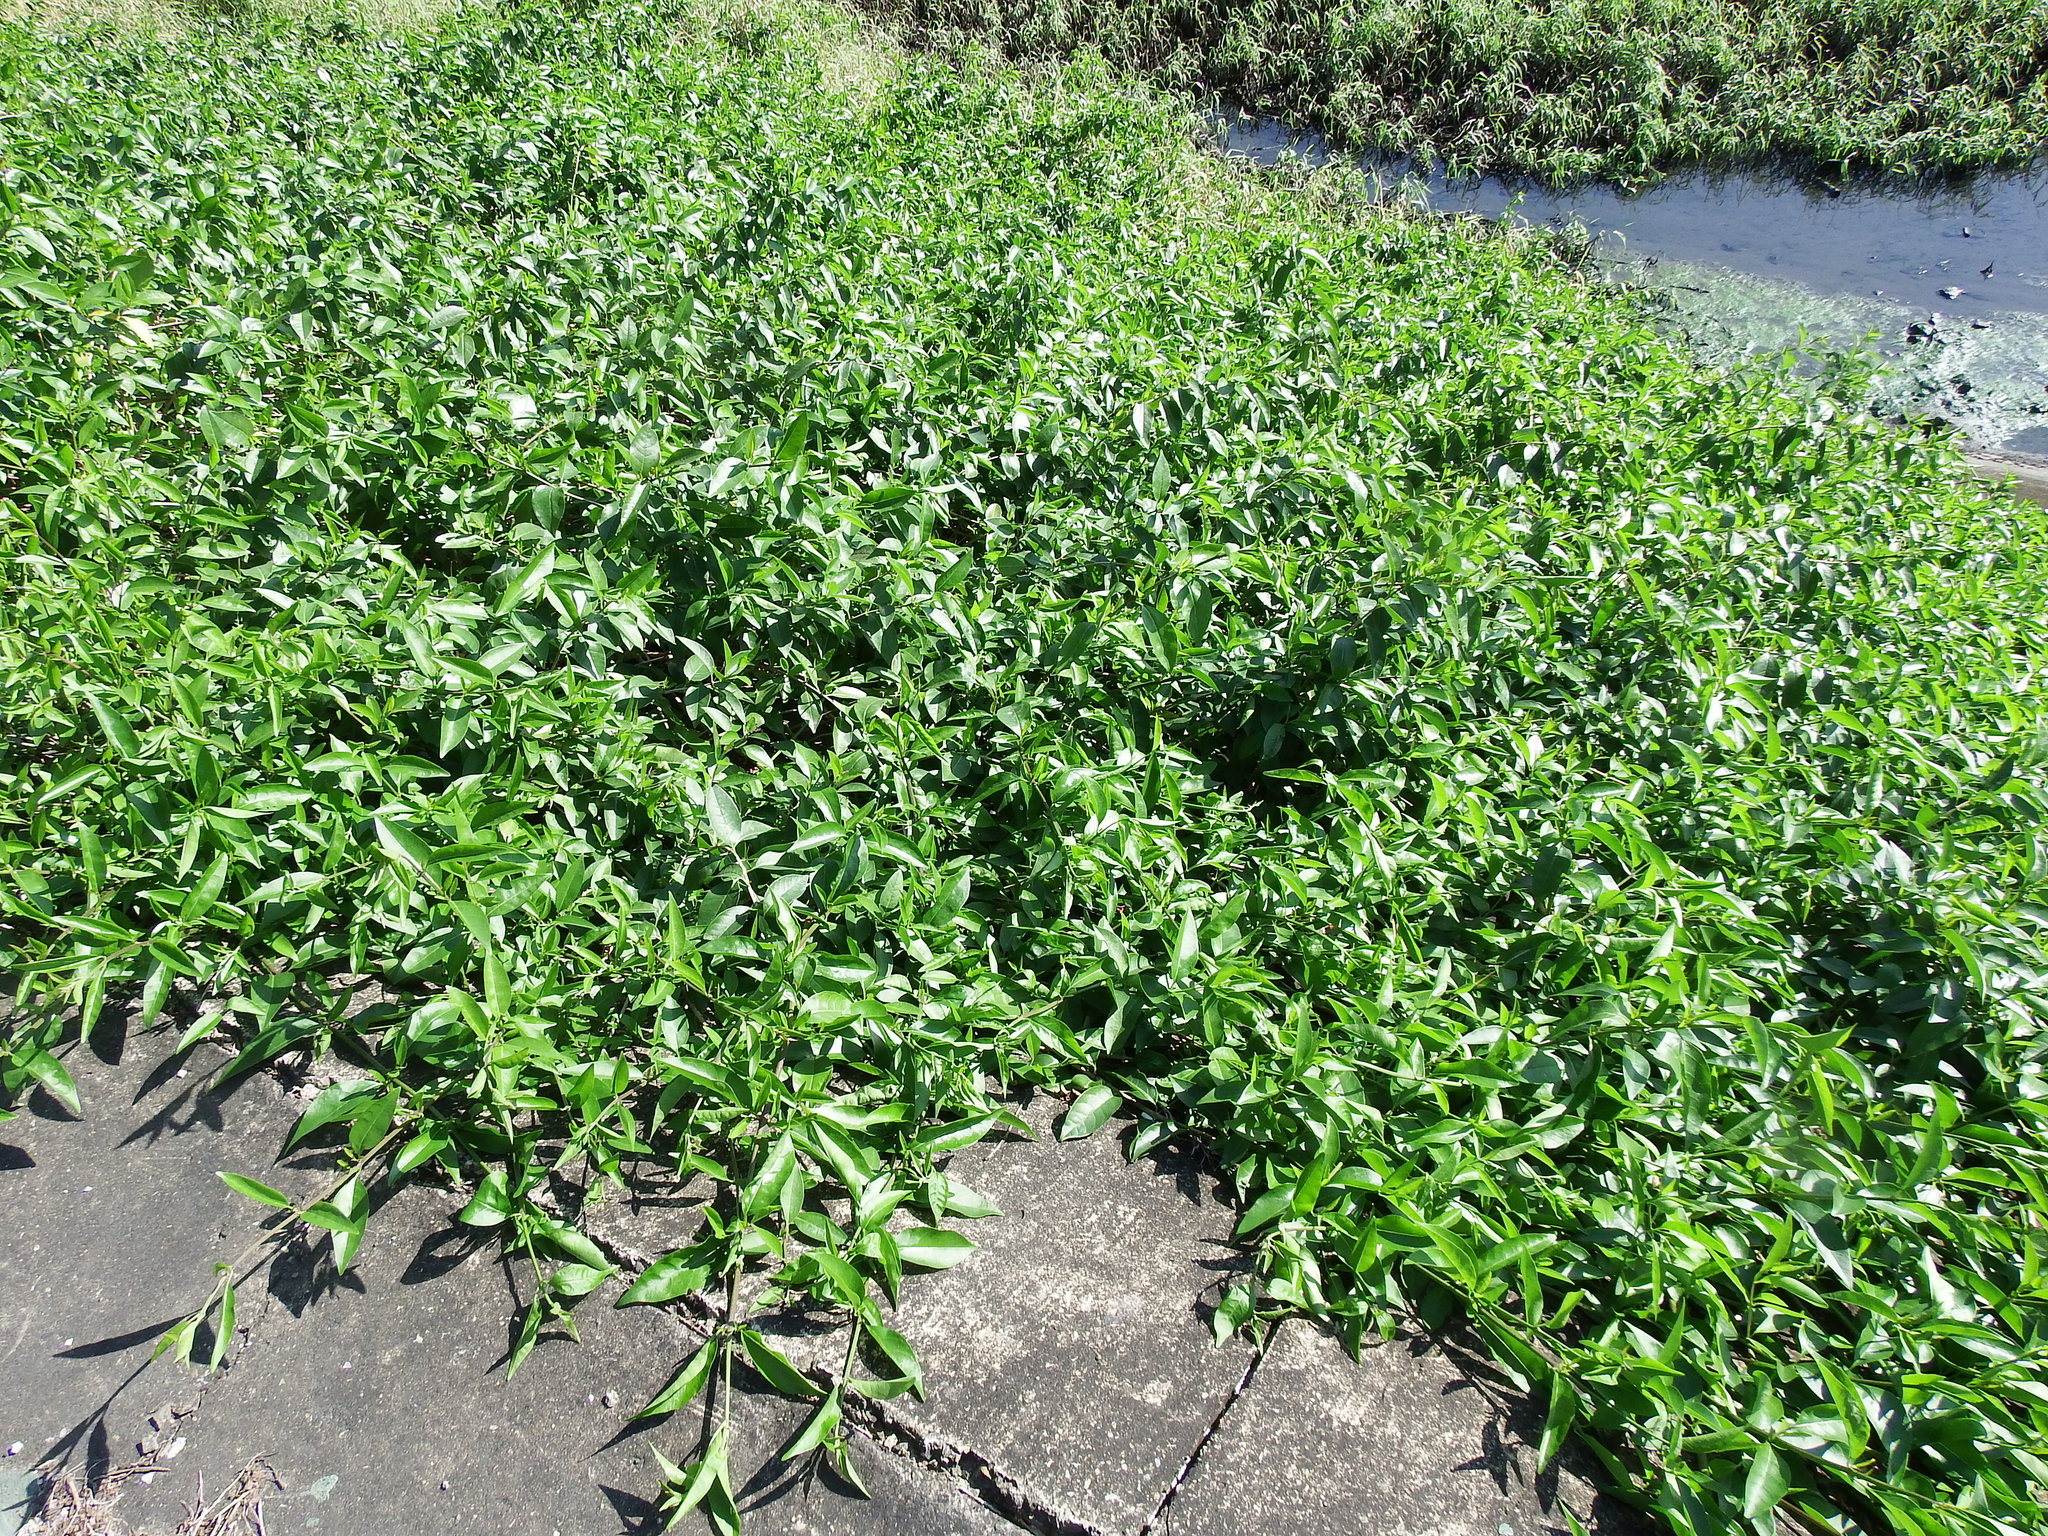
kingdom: Plantae
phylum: Tracheophyta
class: Magnoliopsida
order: Lamiales
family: Lamiaceae
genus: Volkameria
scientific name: Volkameria inermis
